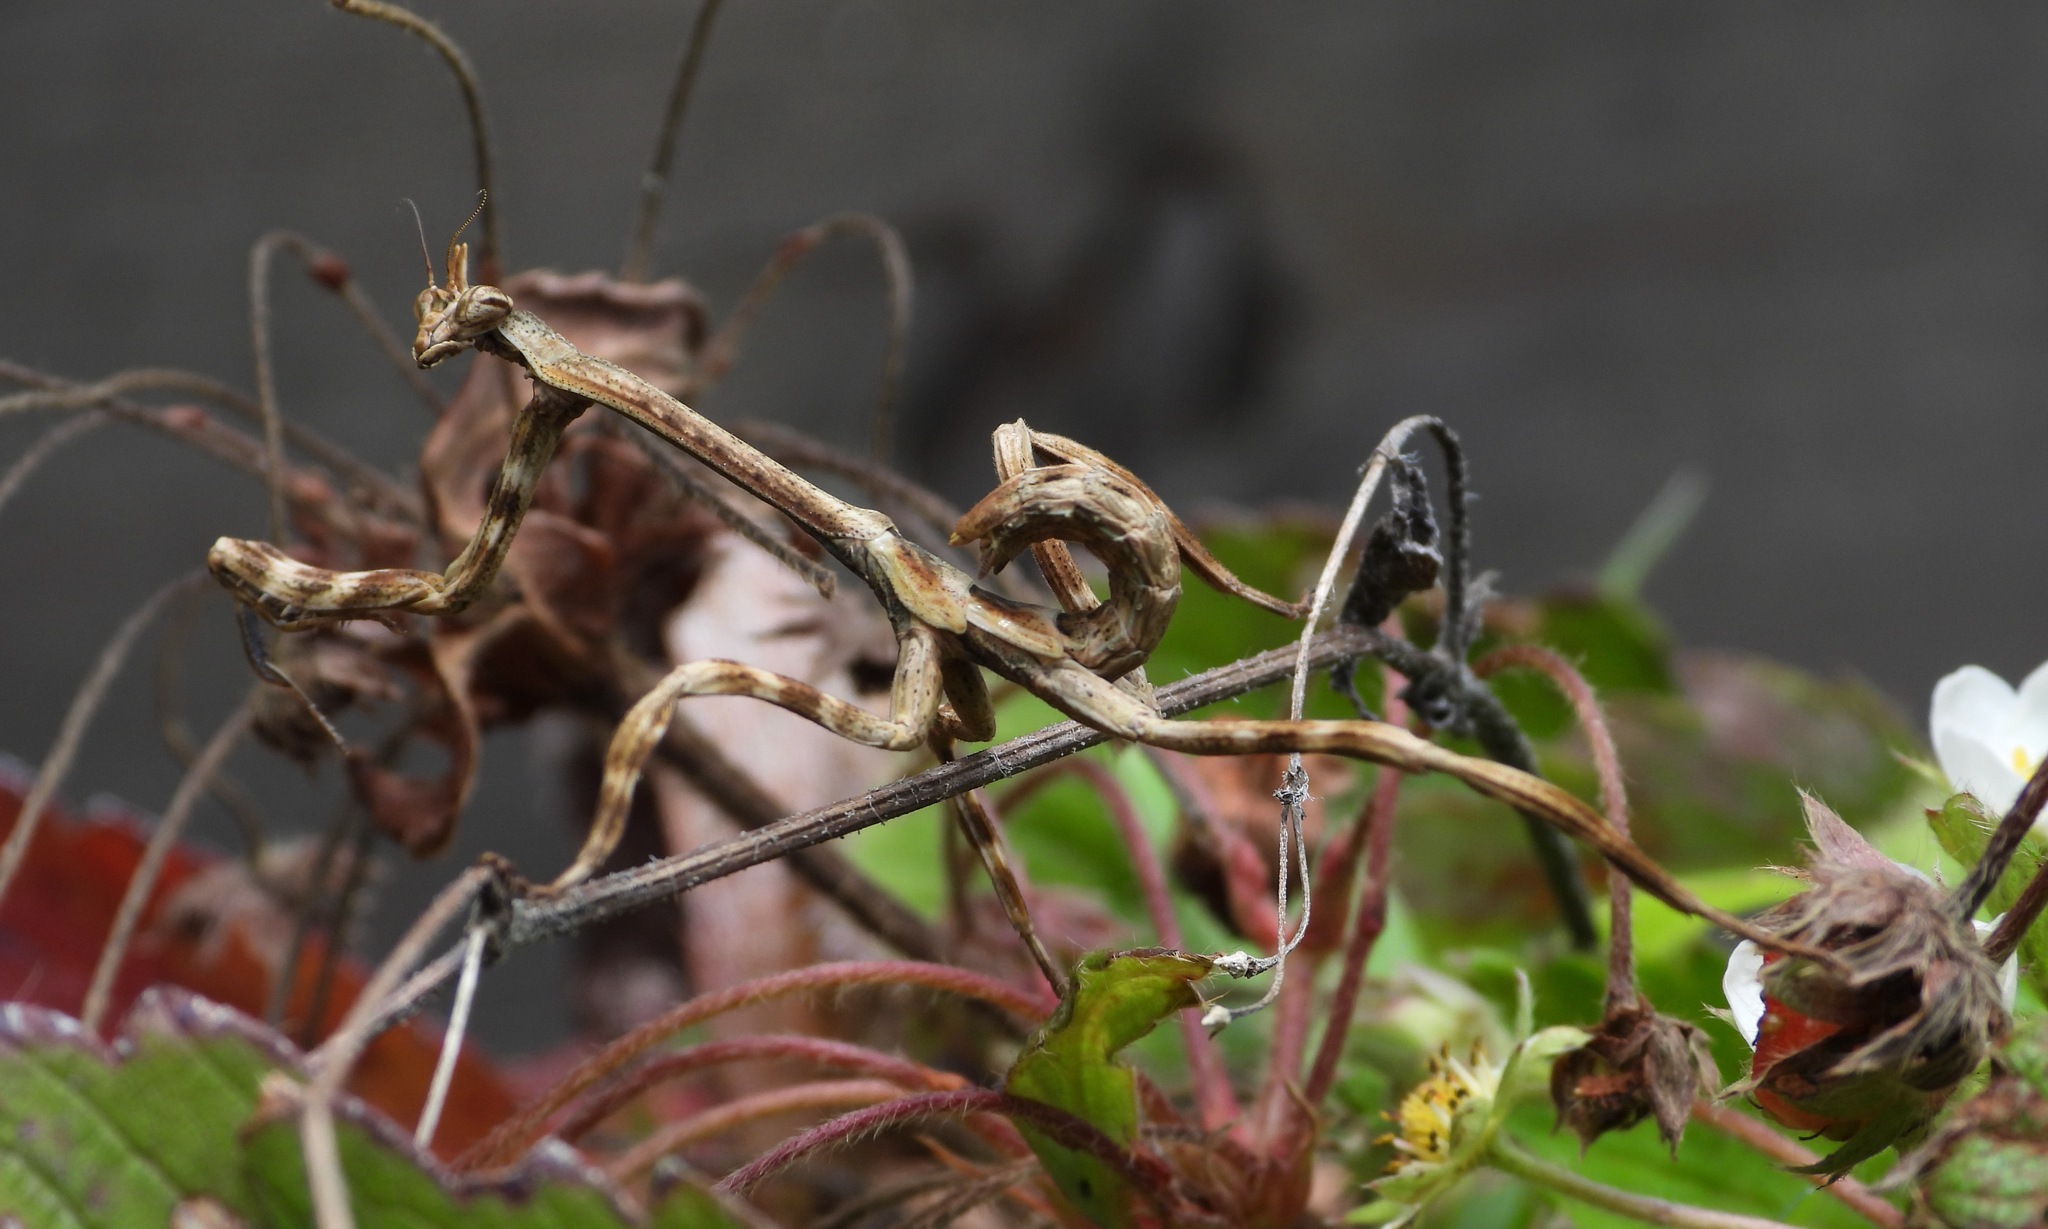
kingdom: Animalia
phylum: Arthropoda
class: Insecta
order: Mantodea
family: Mantidae
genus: Pseudovates
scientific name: Pseudovates chlorophaea
